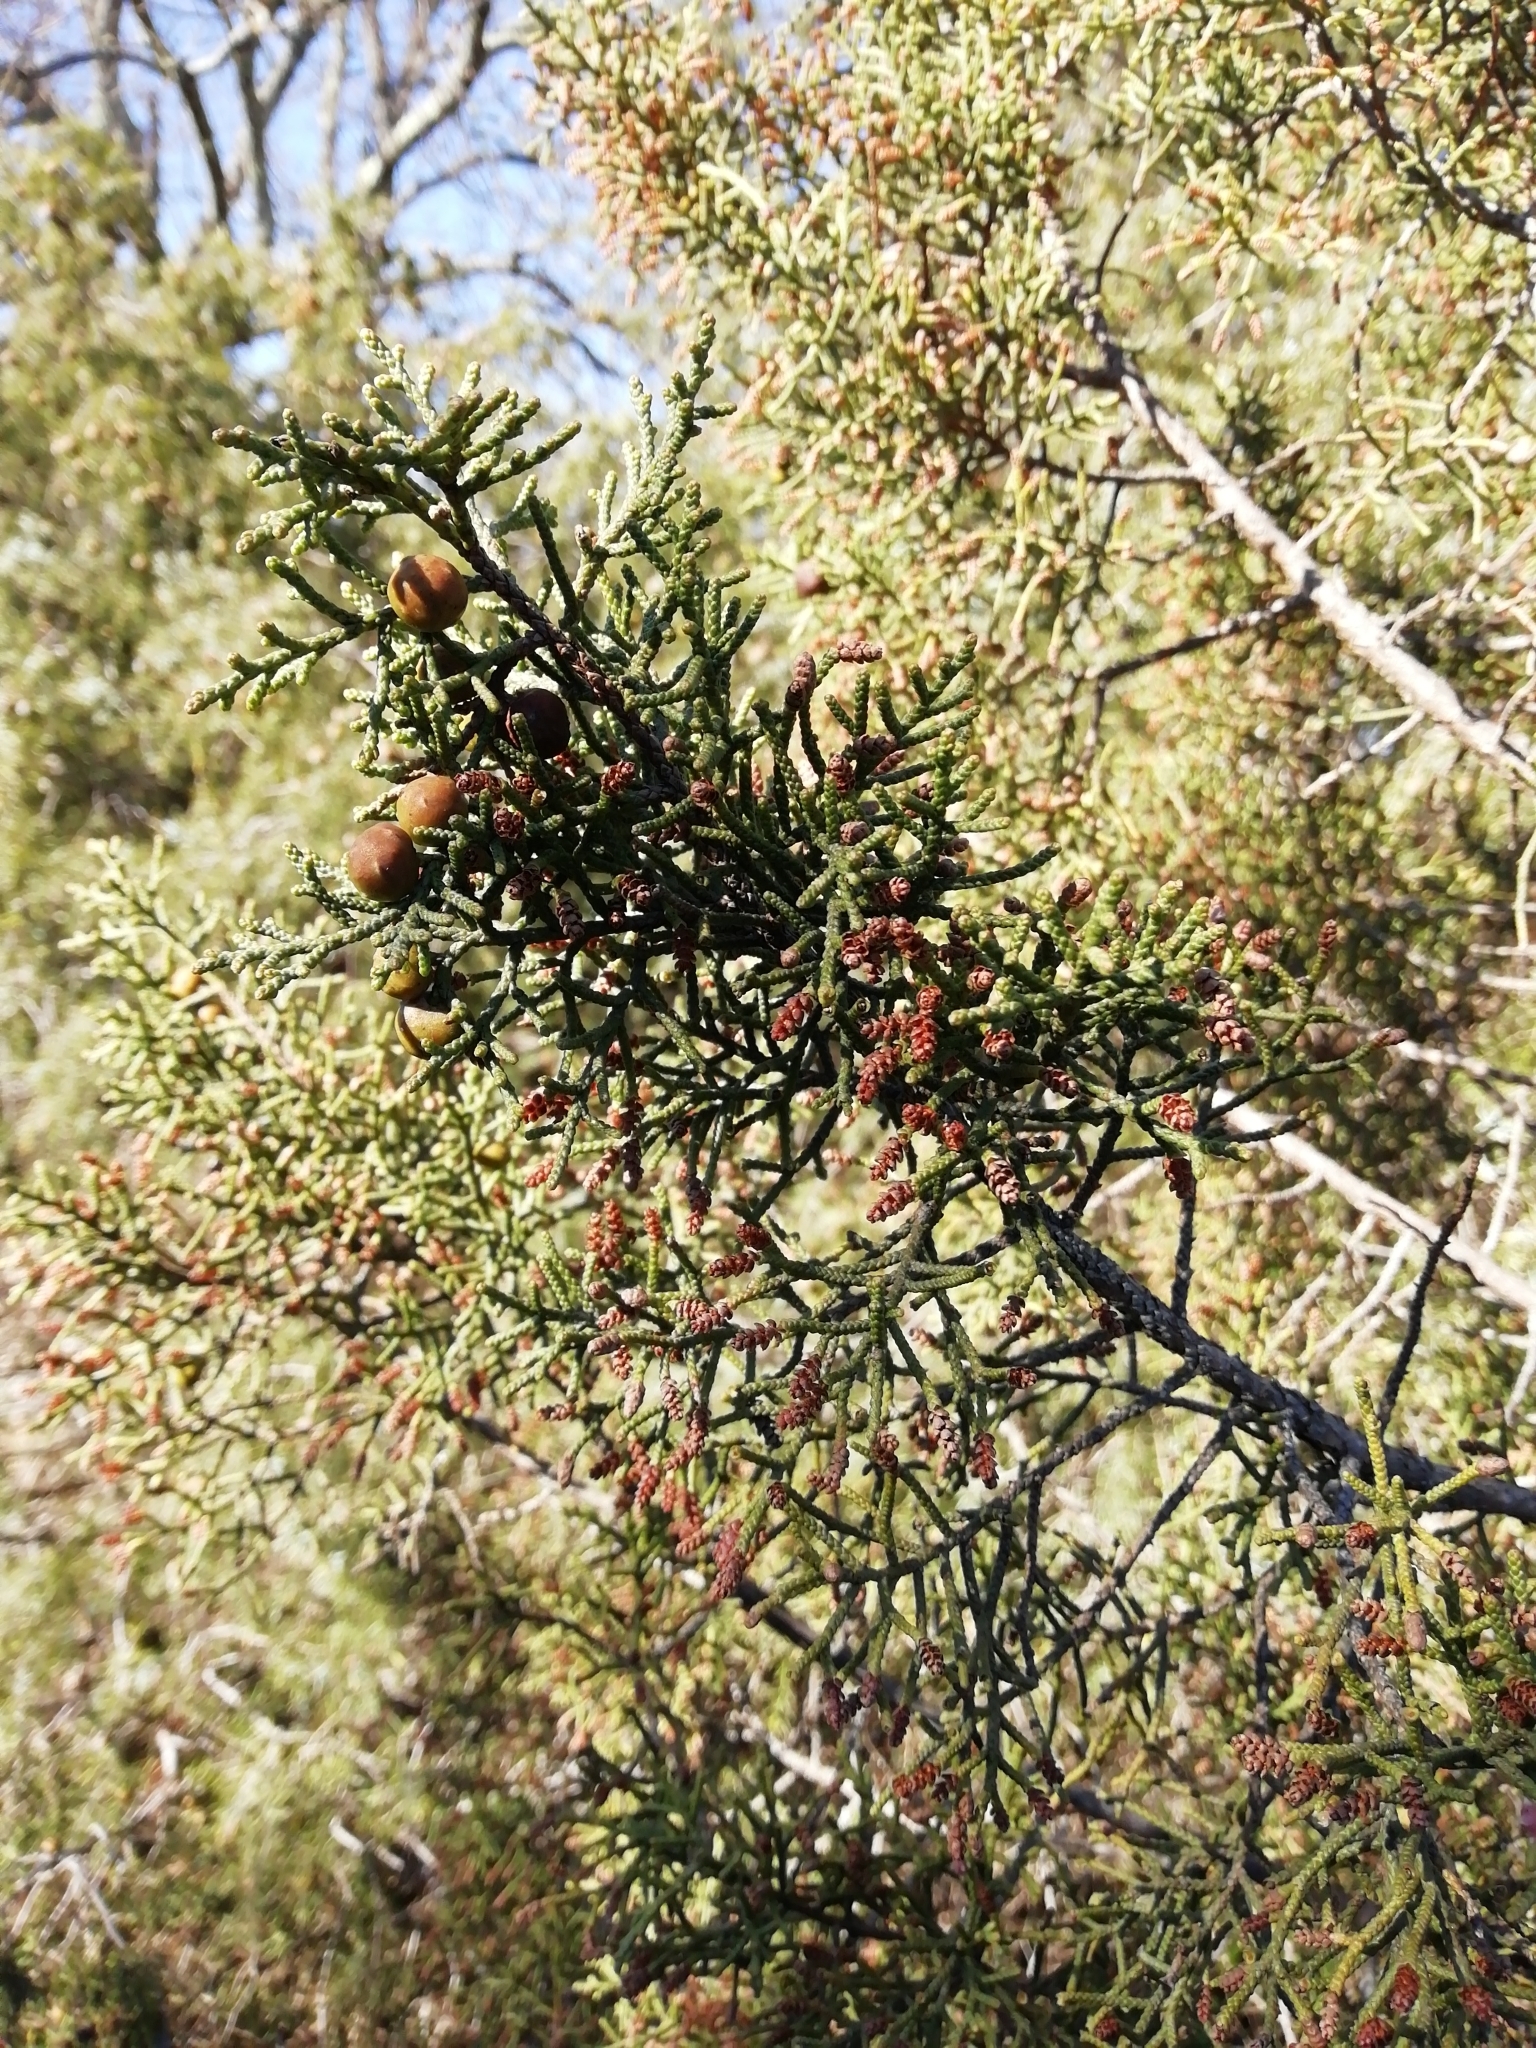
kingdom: Plantae
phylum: Tracheophyta
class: Pinopsida
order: Pinales
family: Cupressaceae
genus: Juniperus
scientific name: Juniperus phoenicea
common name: Phoenician juniper
